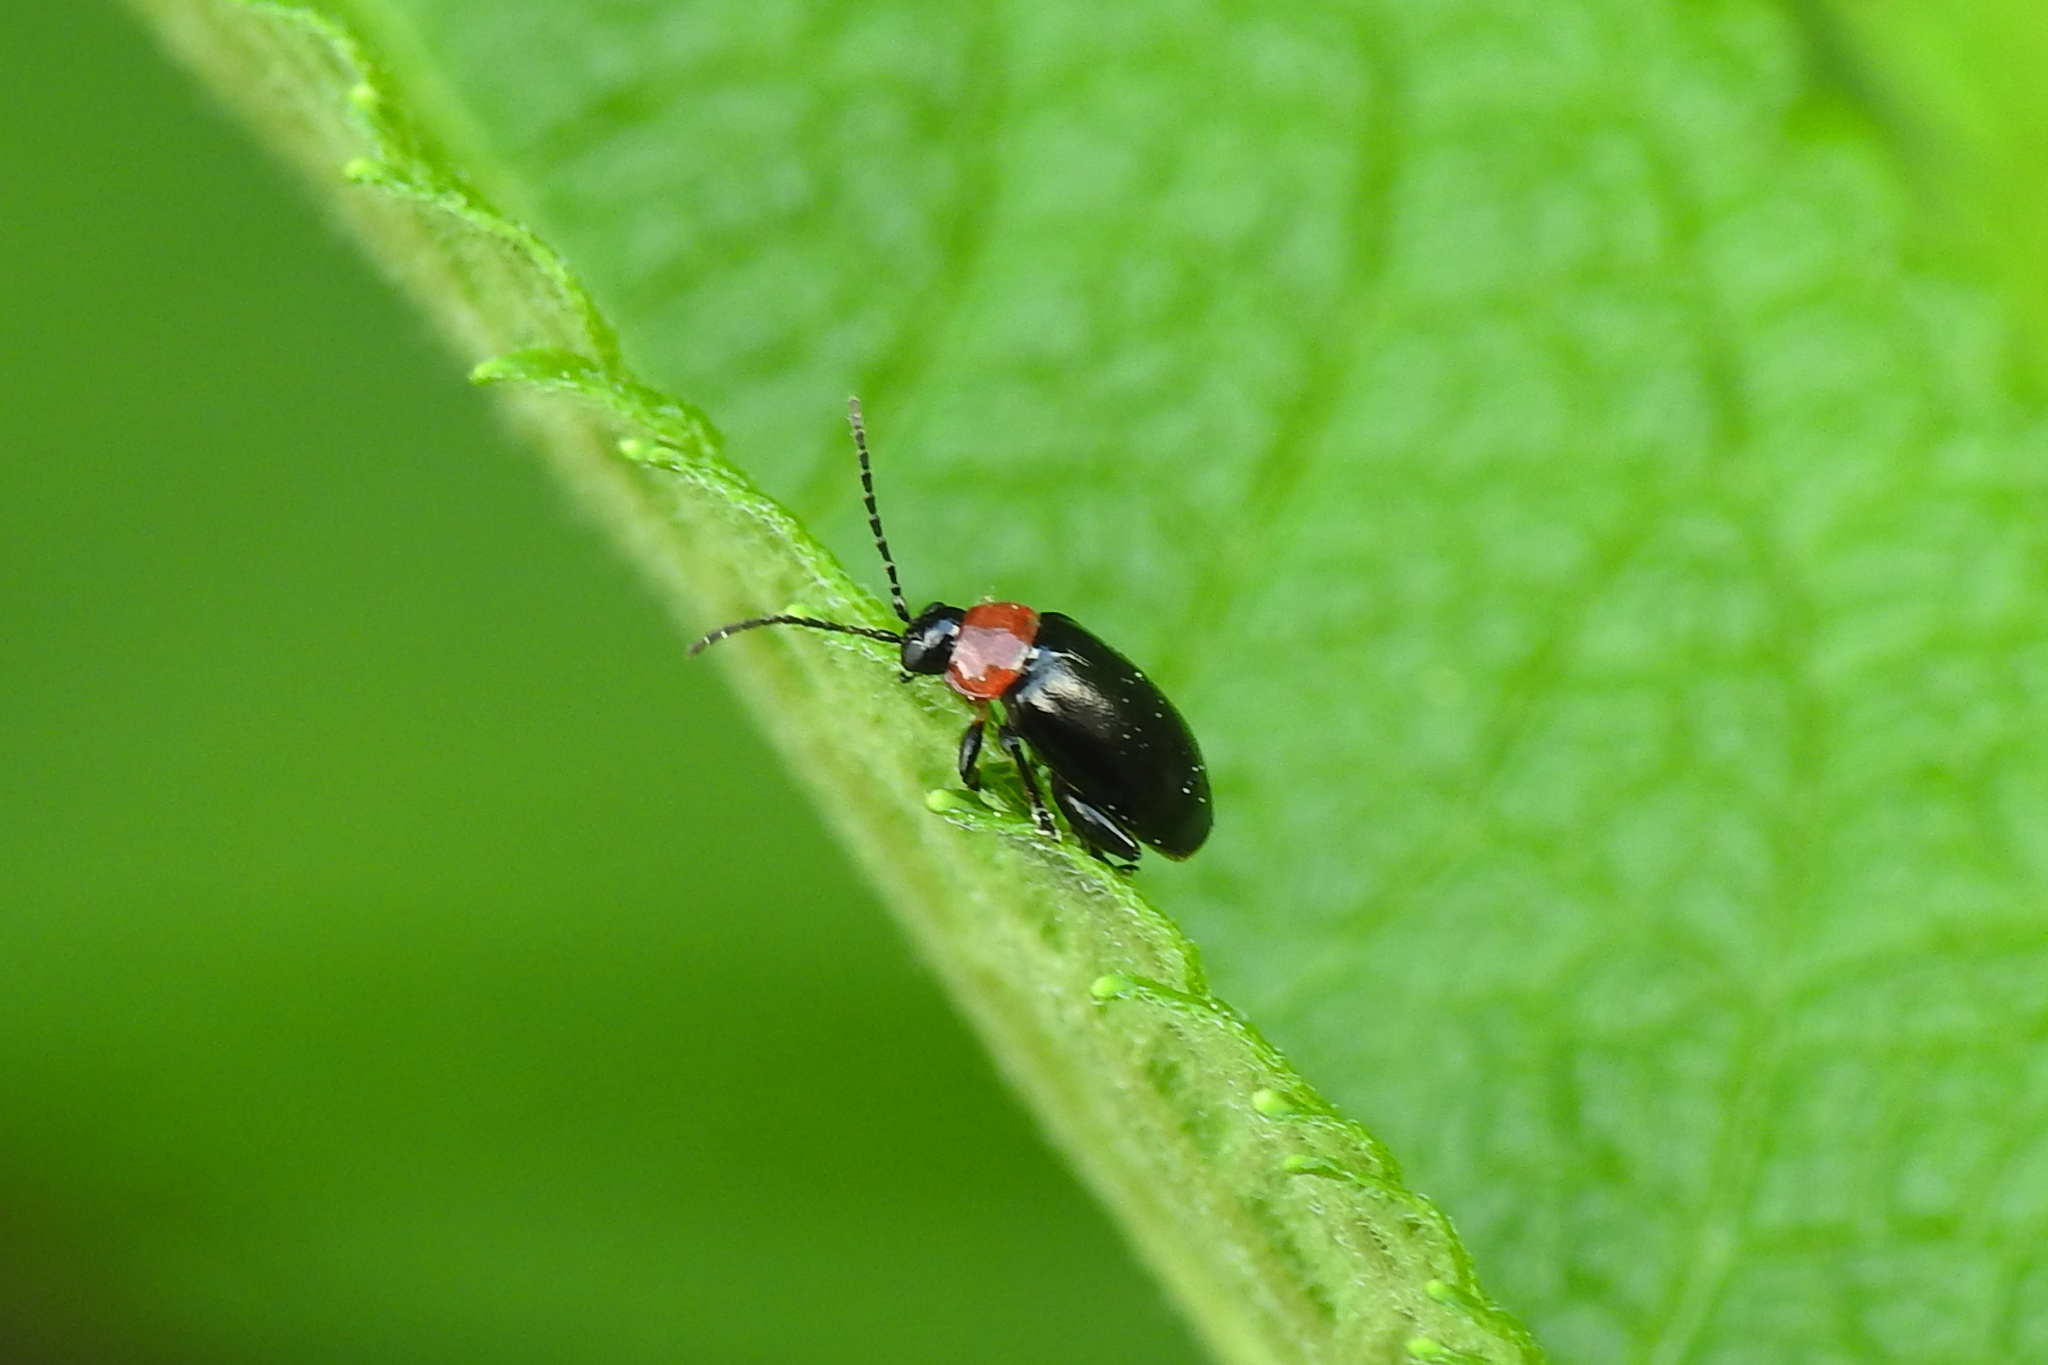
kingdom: Animalia
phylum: Arthropoda
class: Insecta
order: Coleoptera
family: Chrysomelidae
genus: Disonycha
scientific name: Disonycha xanthomelas
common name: Spinach flea beetle
